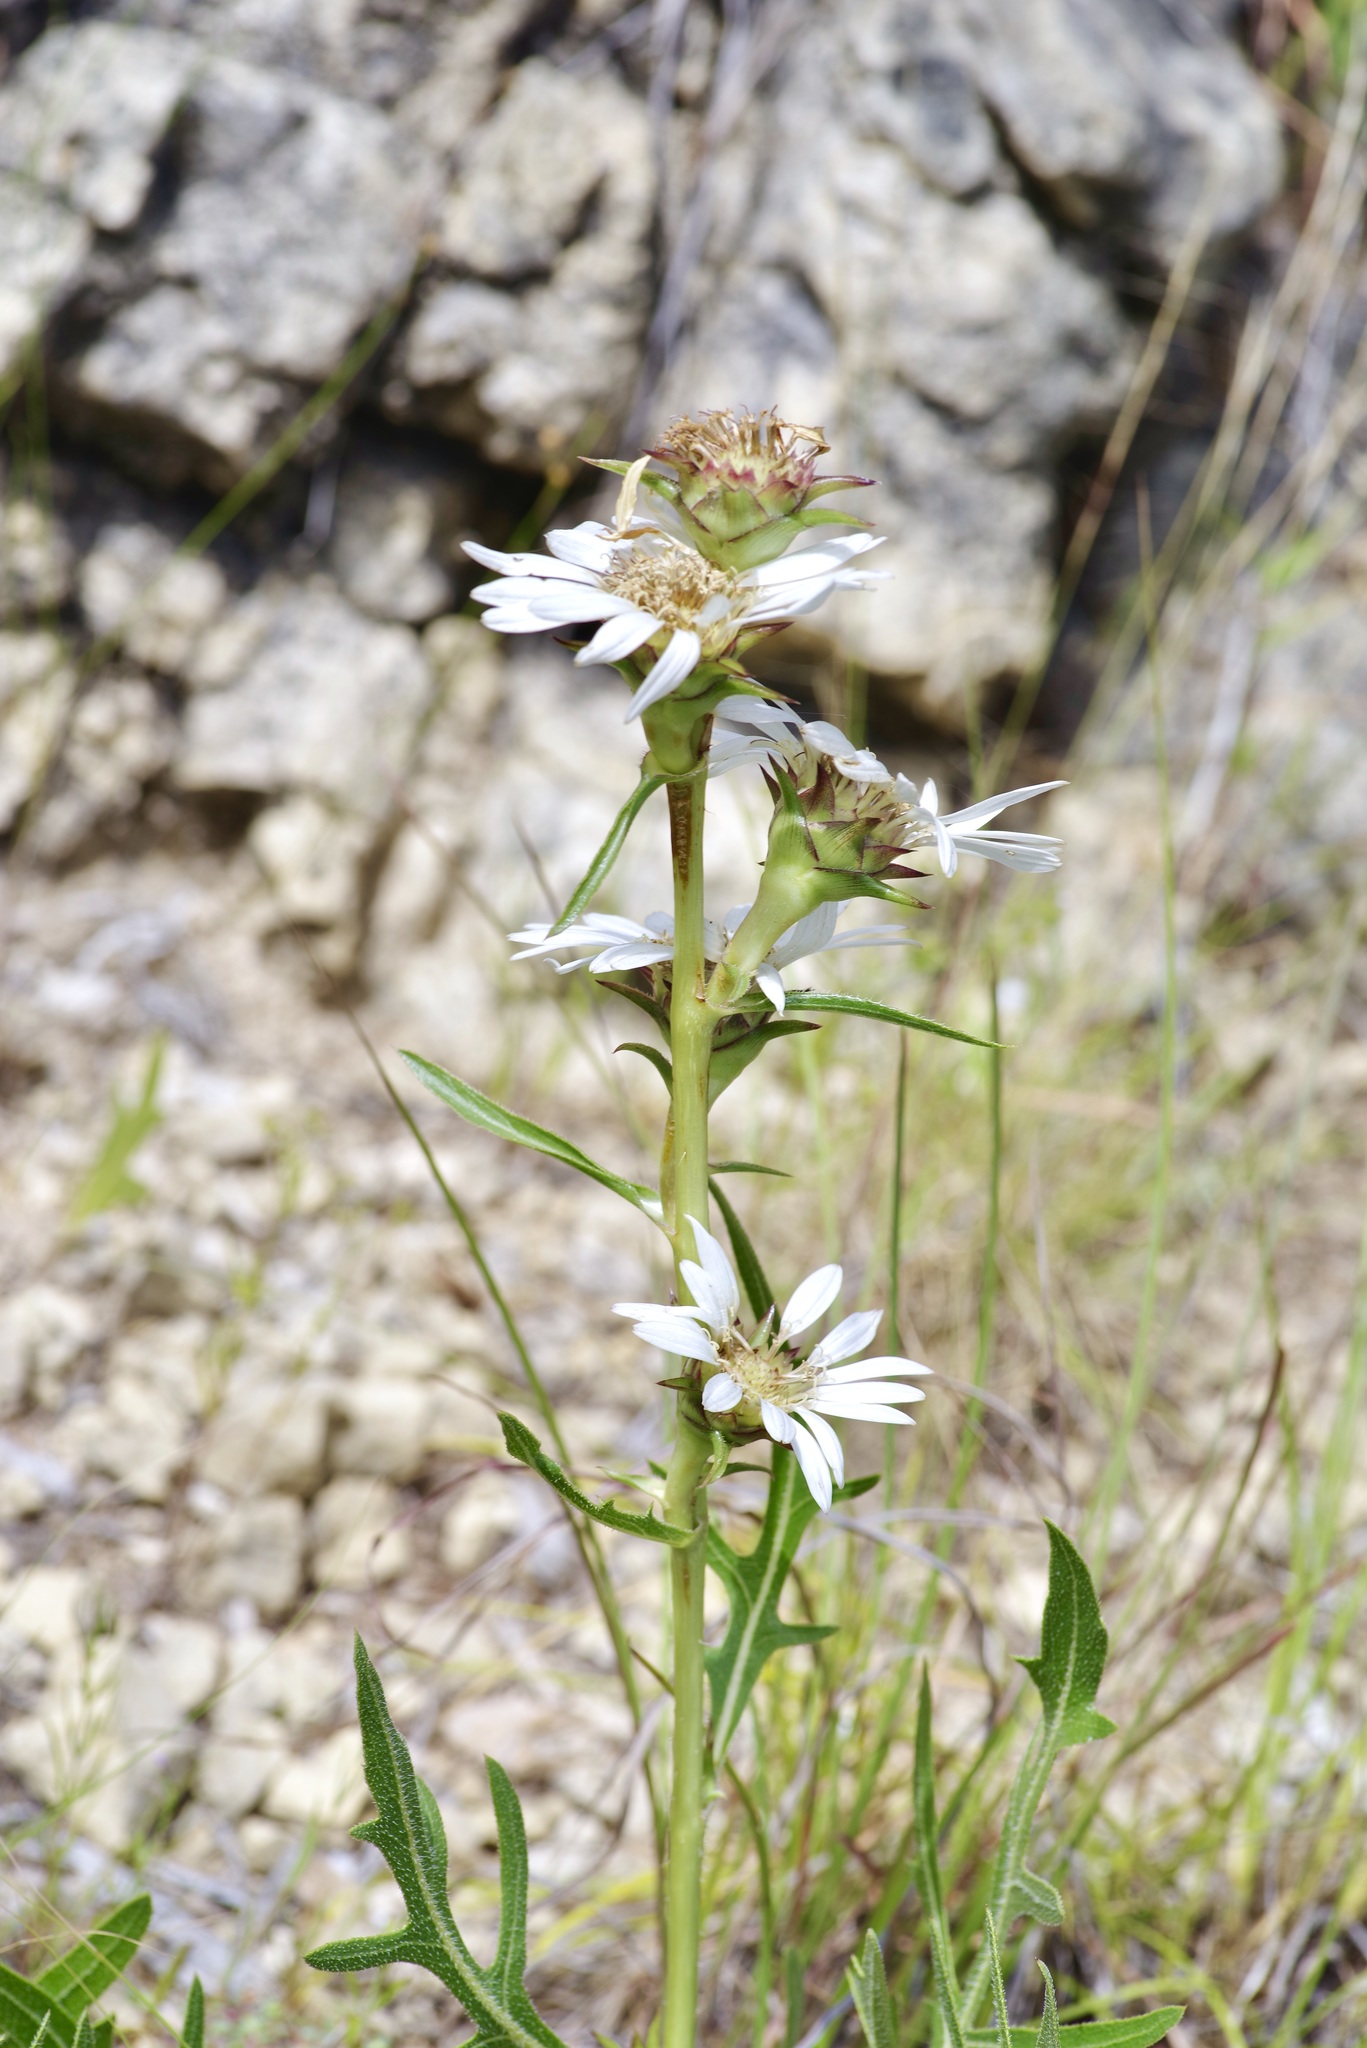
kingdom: Plantae
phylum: Tracheophyta
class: Magnoliopsida
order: Asterales
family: Asteraceae
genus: Silphium
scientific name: Silphium albiflorum
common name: White rosinweed
